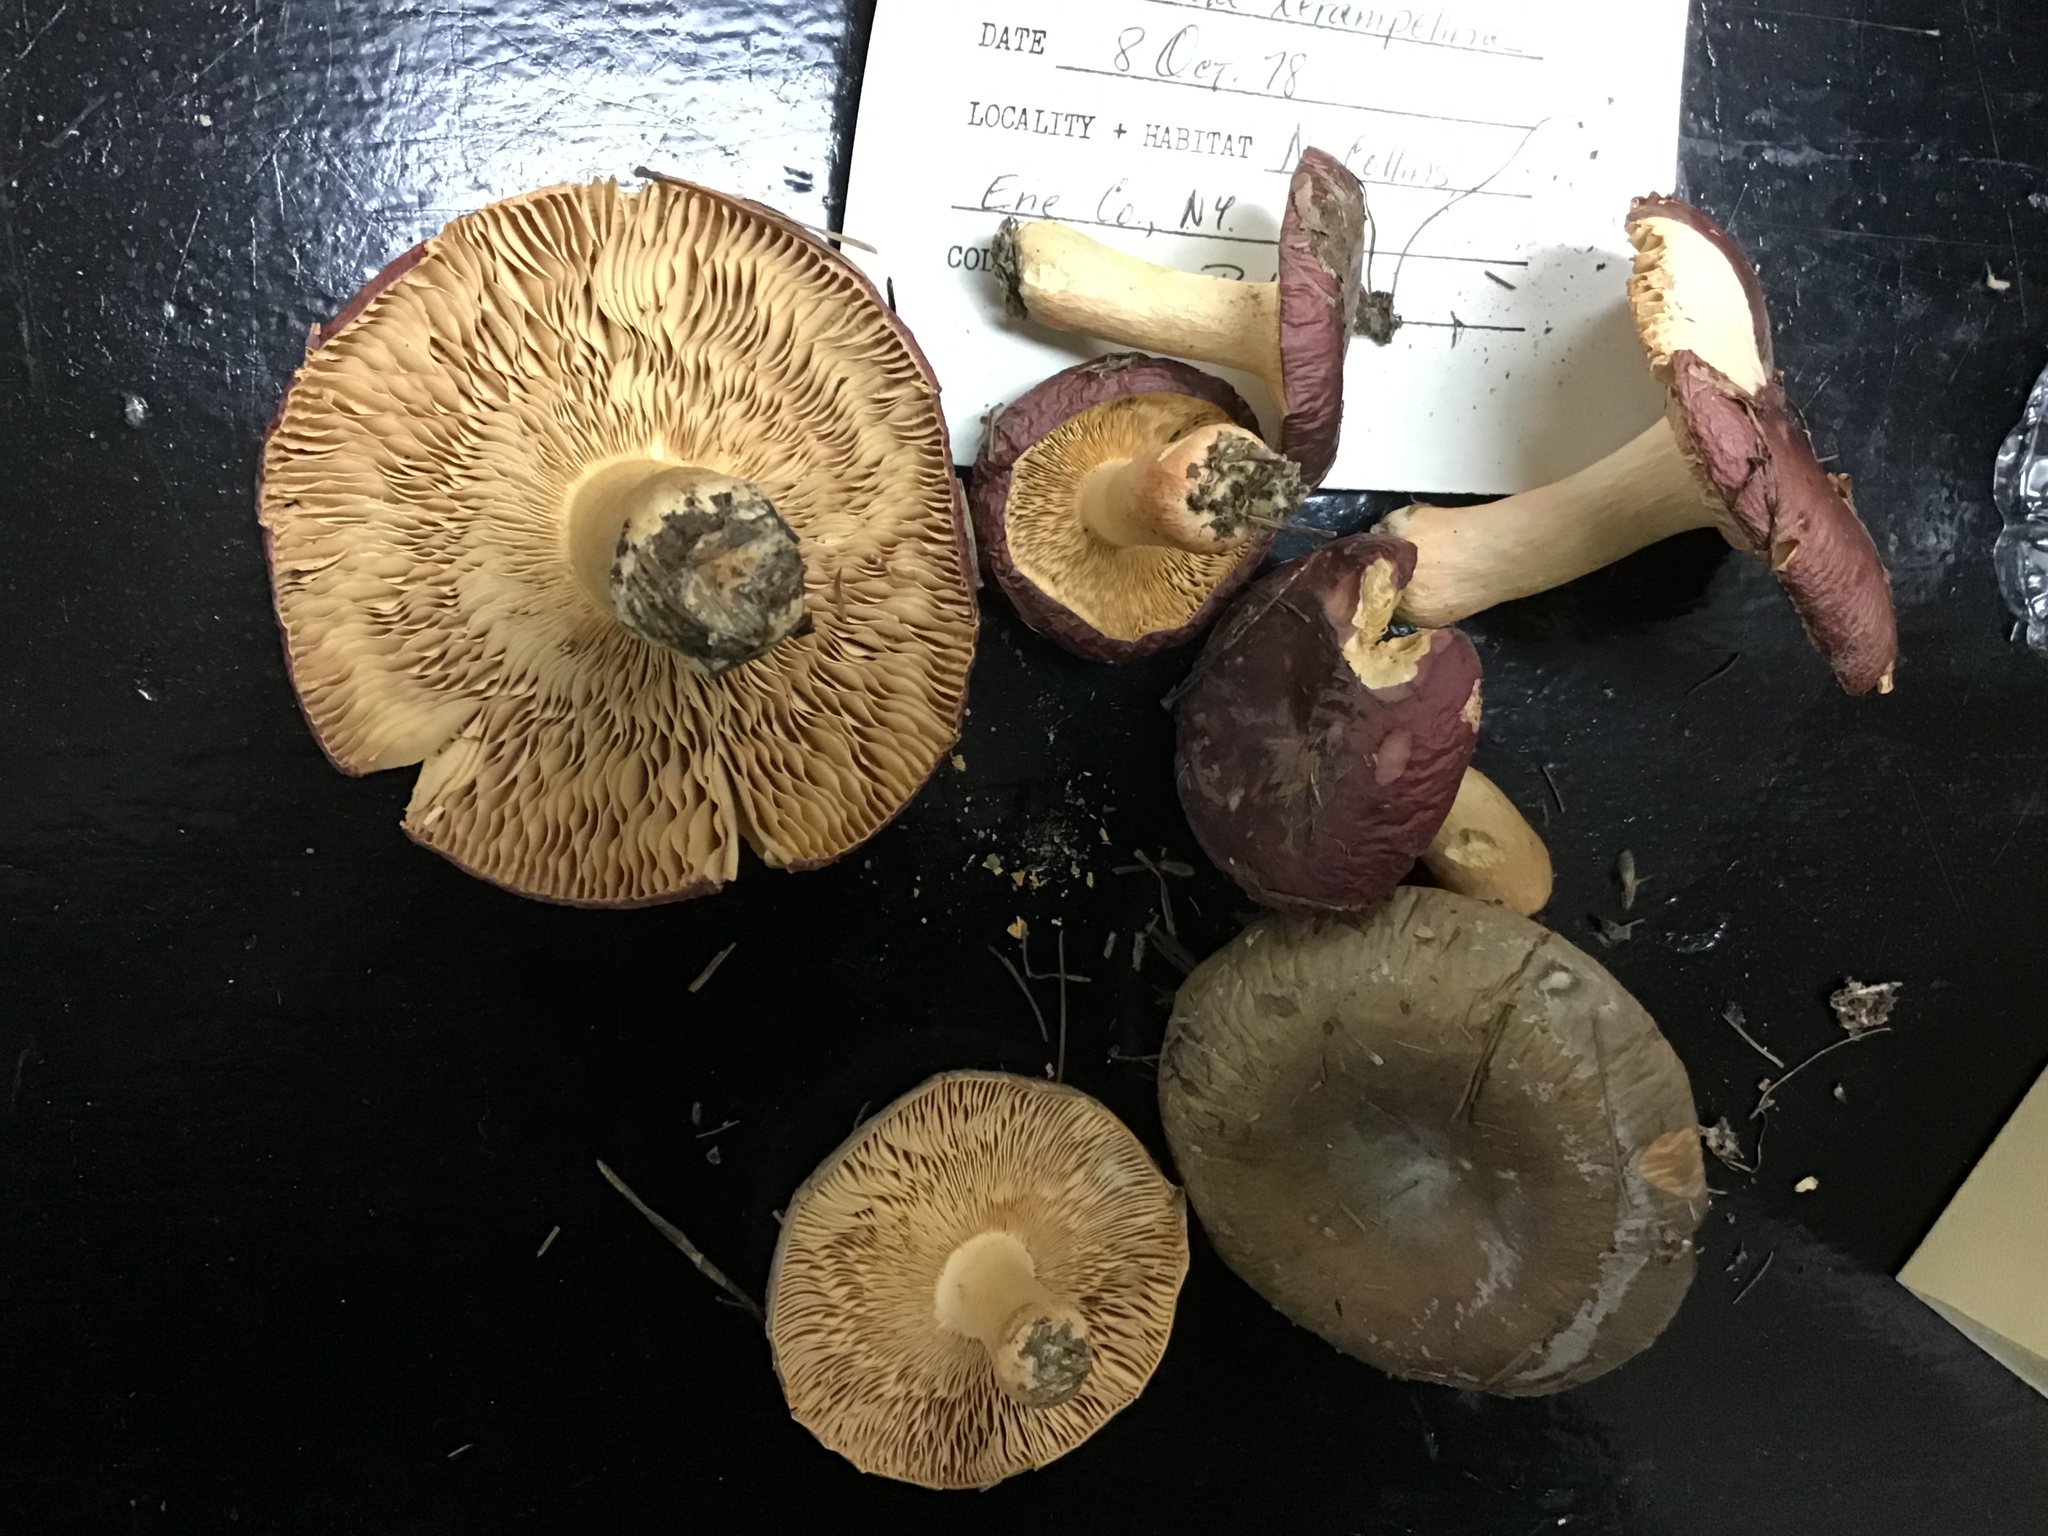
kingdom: Fungi
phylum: Basidiomycota
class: Agaricomycetes
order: Russulales
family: Russulaceae
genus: Russula
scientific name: Russula squalida
